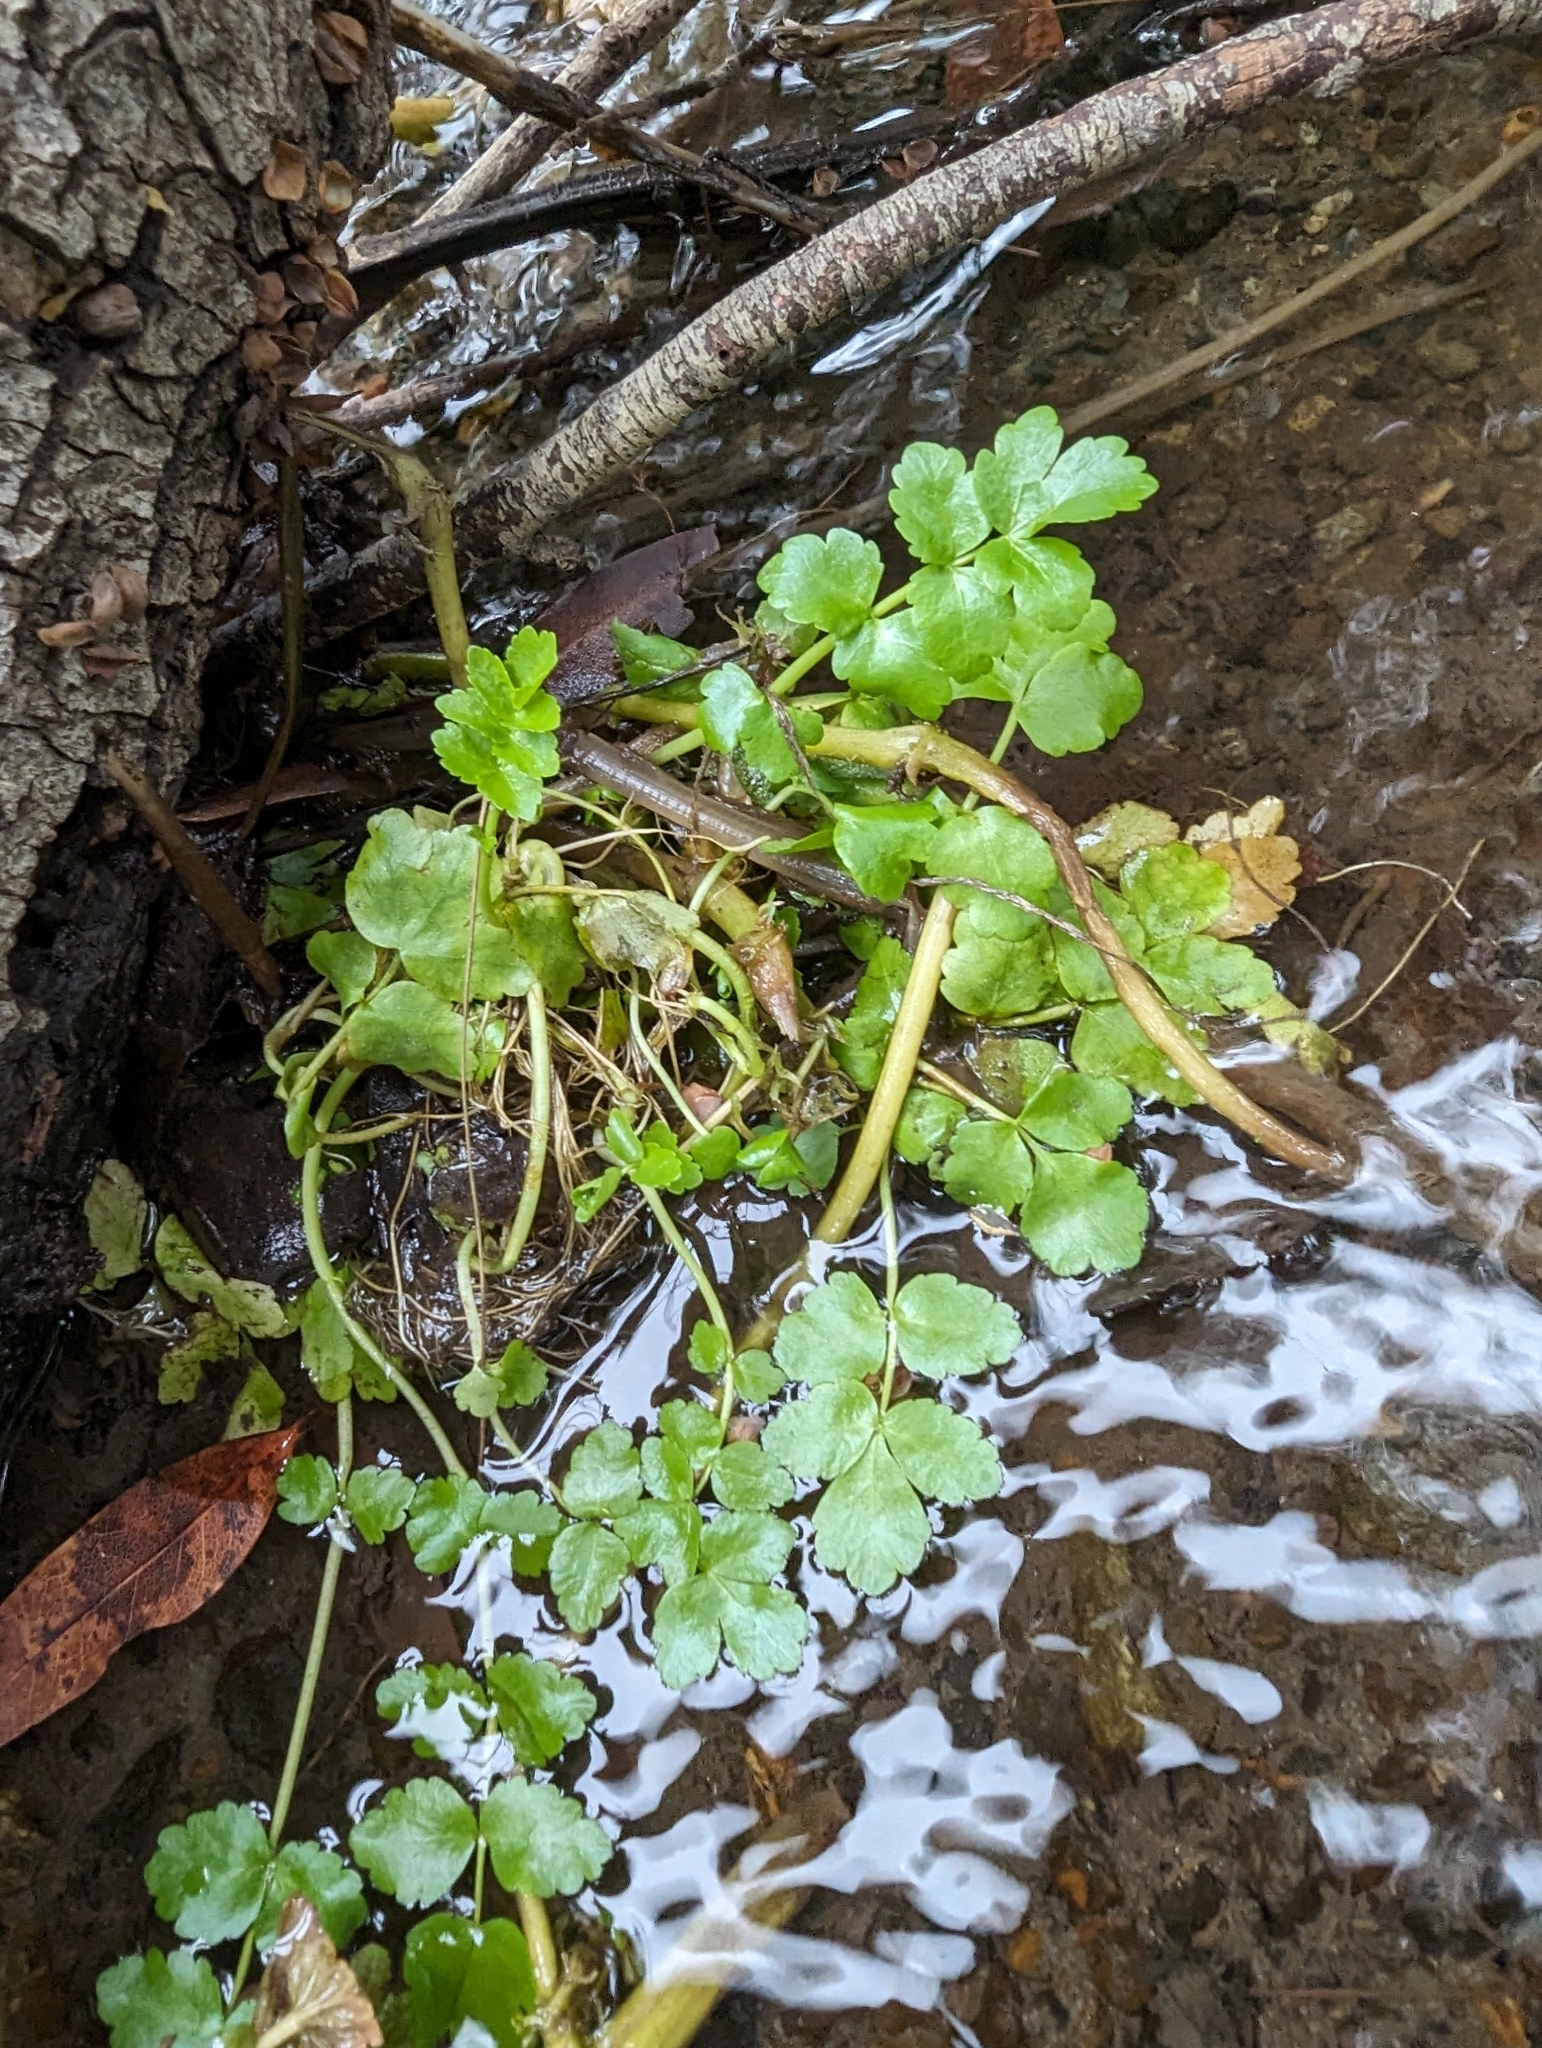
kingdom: Plantae
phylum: Tracheophyta
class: Magnoliopsida
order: Apiales
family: Apiaceae
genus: Berula
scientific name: Berula erecta
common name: Lesser water-parsnip
